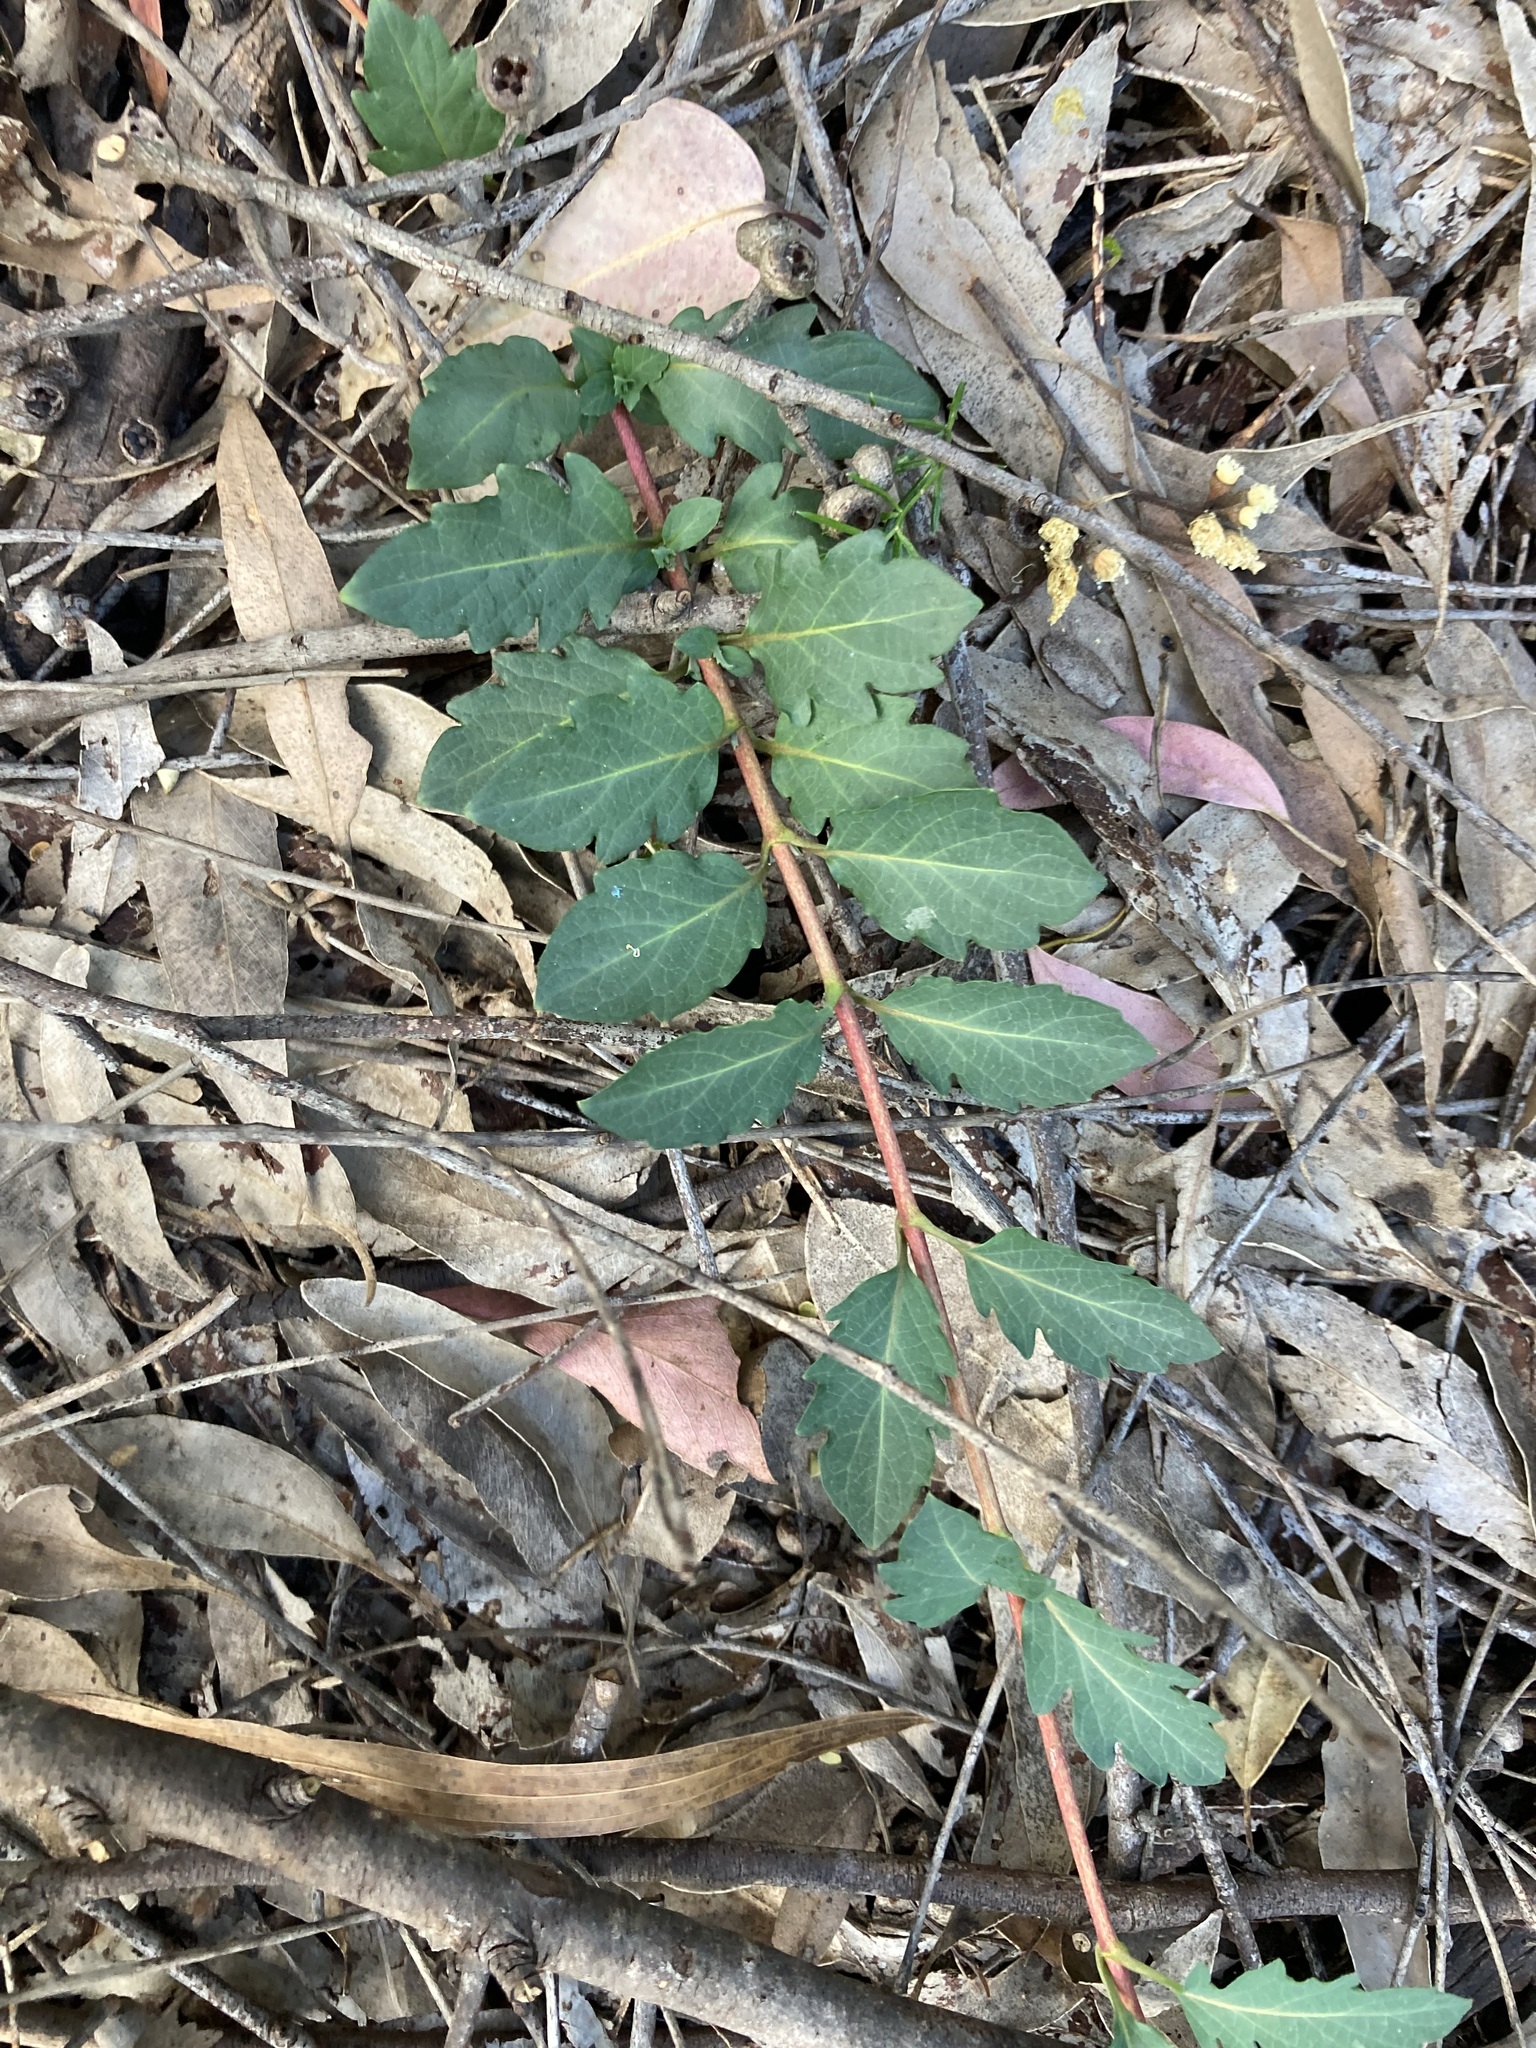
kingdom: Plantae
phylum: Tracheophyta
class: Magnoliopsida
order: Dipsacales
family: Caprifoliaceae
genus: Lonicera
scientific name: Lonicera japonica
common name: Japanese honeysuckle
